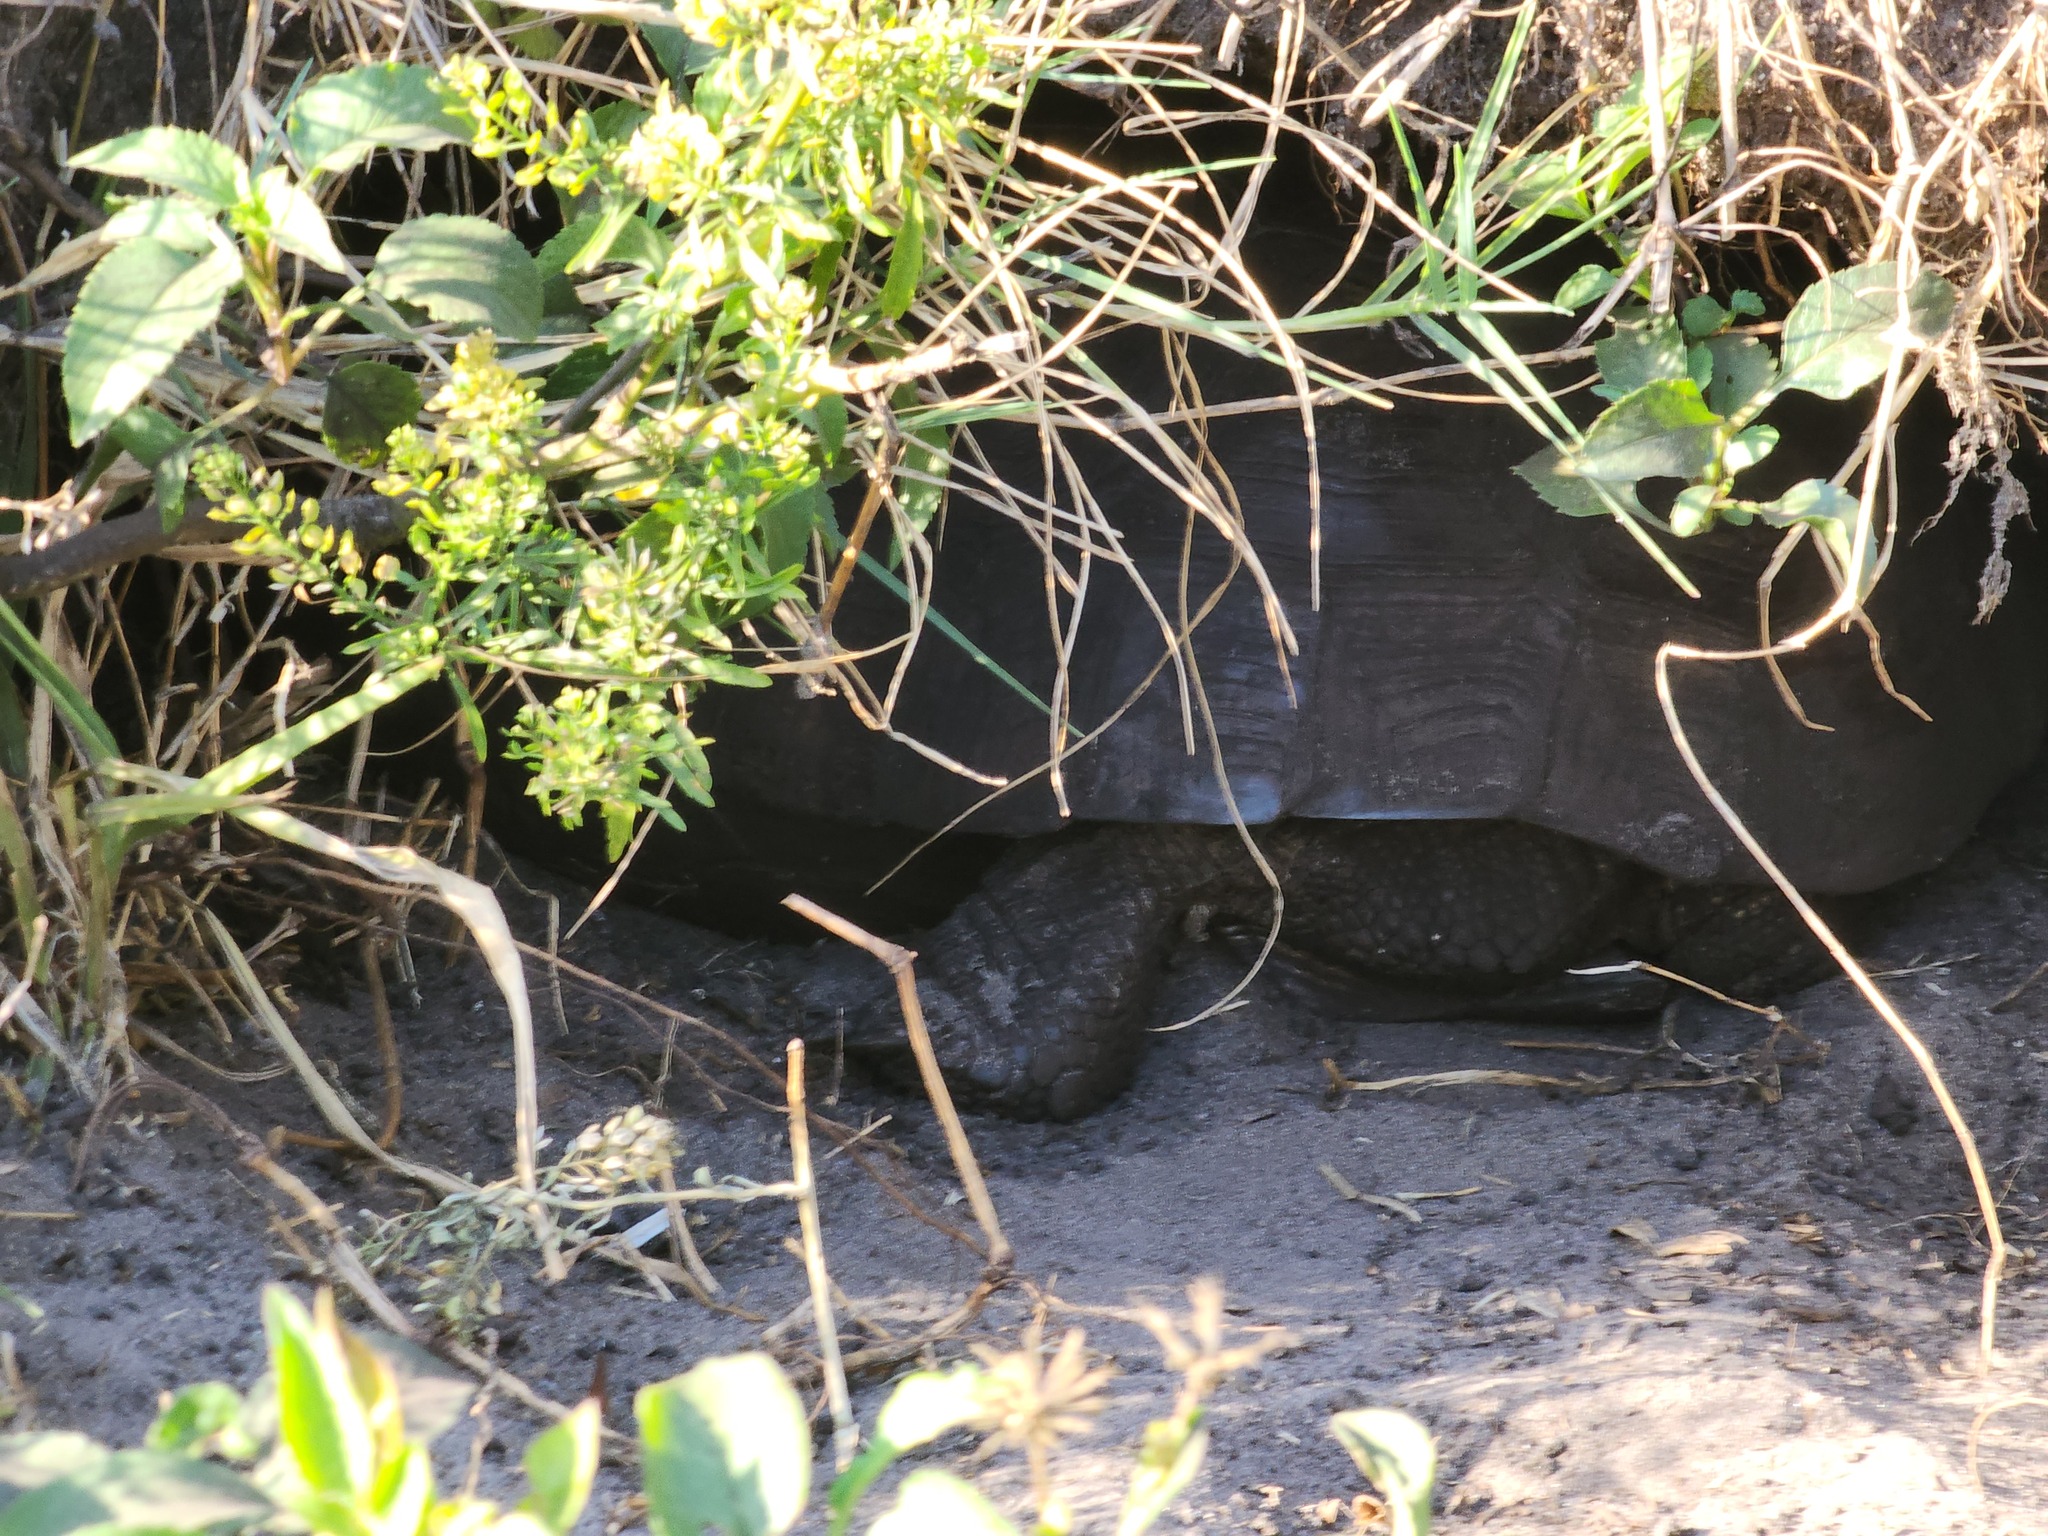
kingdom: Animalia
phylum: Chordata
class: Testudines
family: Testudinidae
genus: Gopherus
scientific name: Gopherus polyphemus
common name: Florida gopher tortoise
